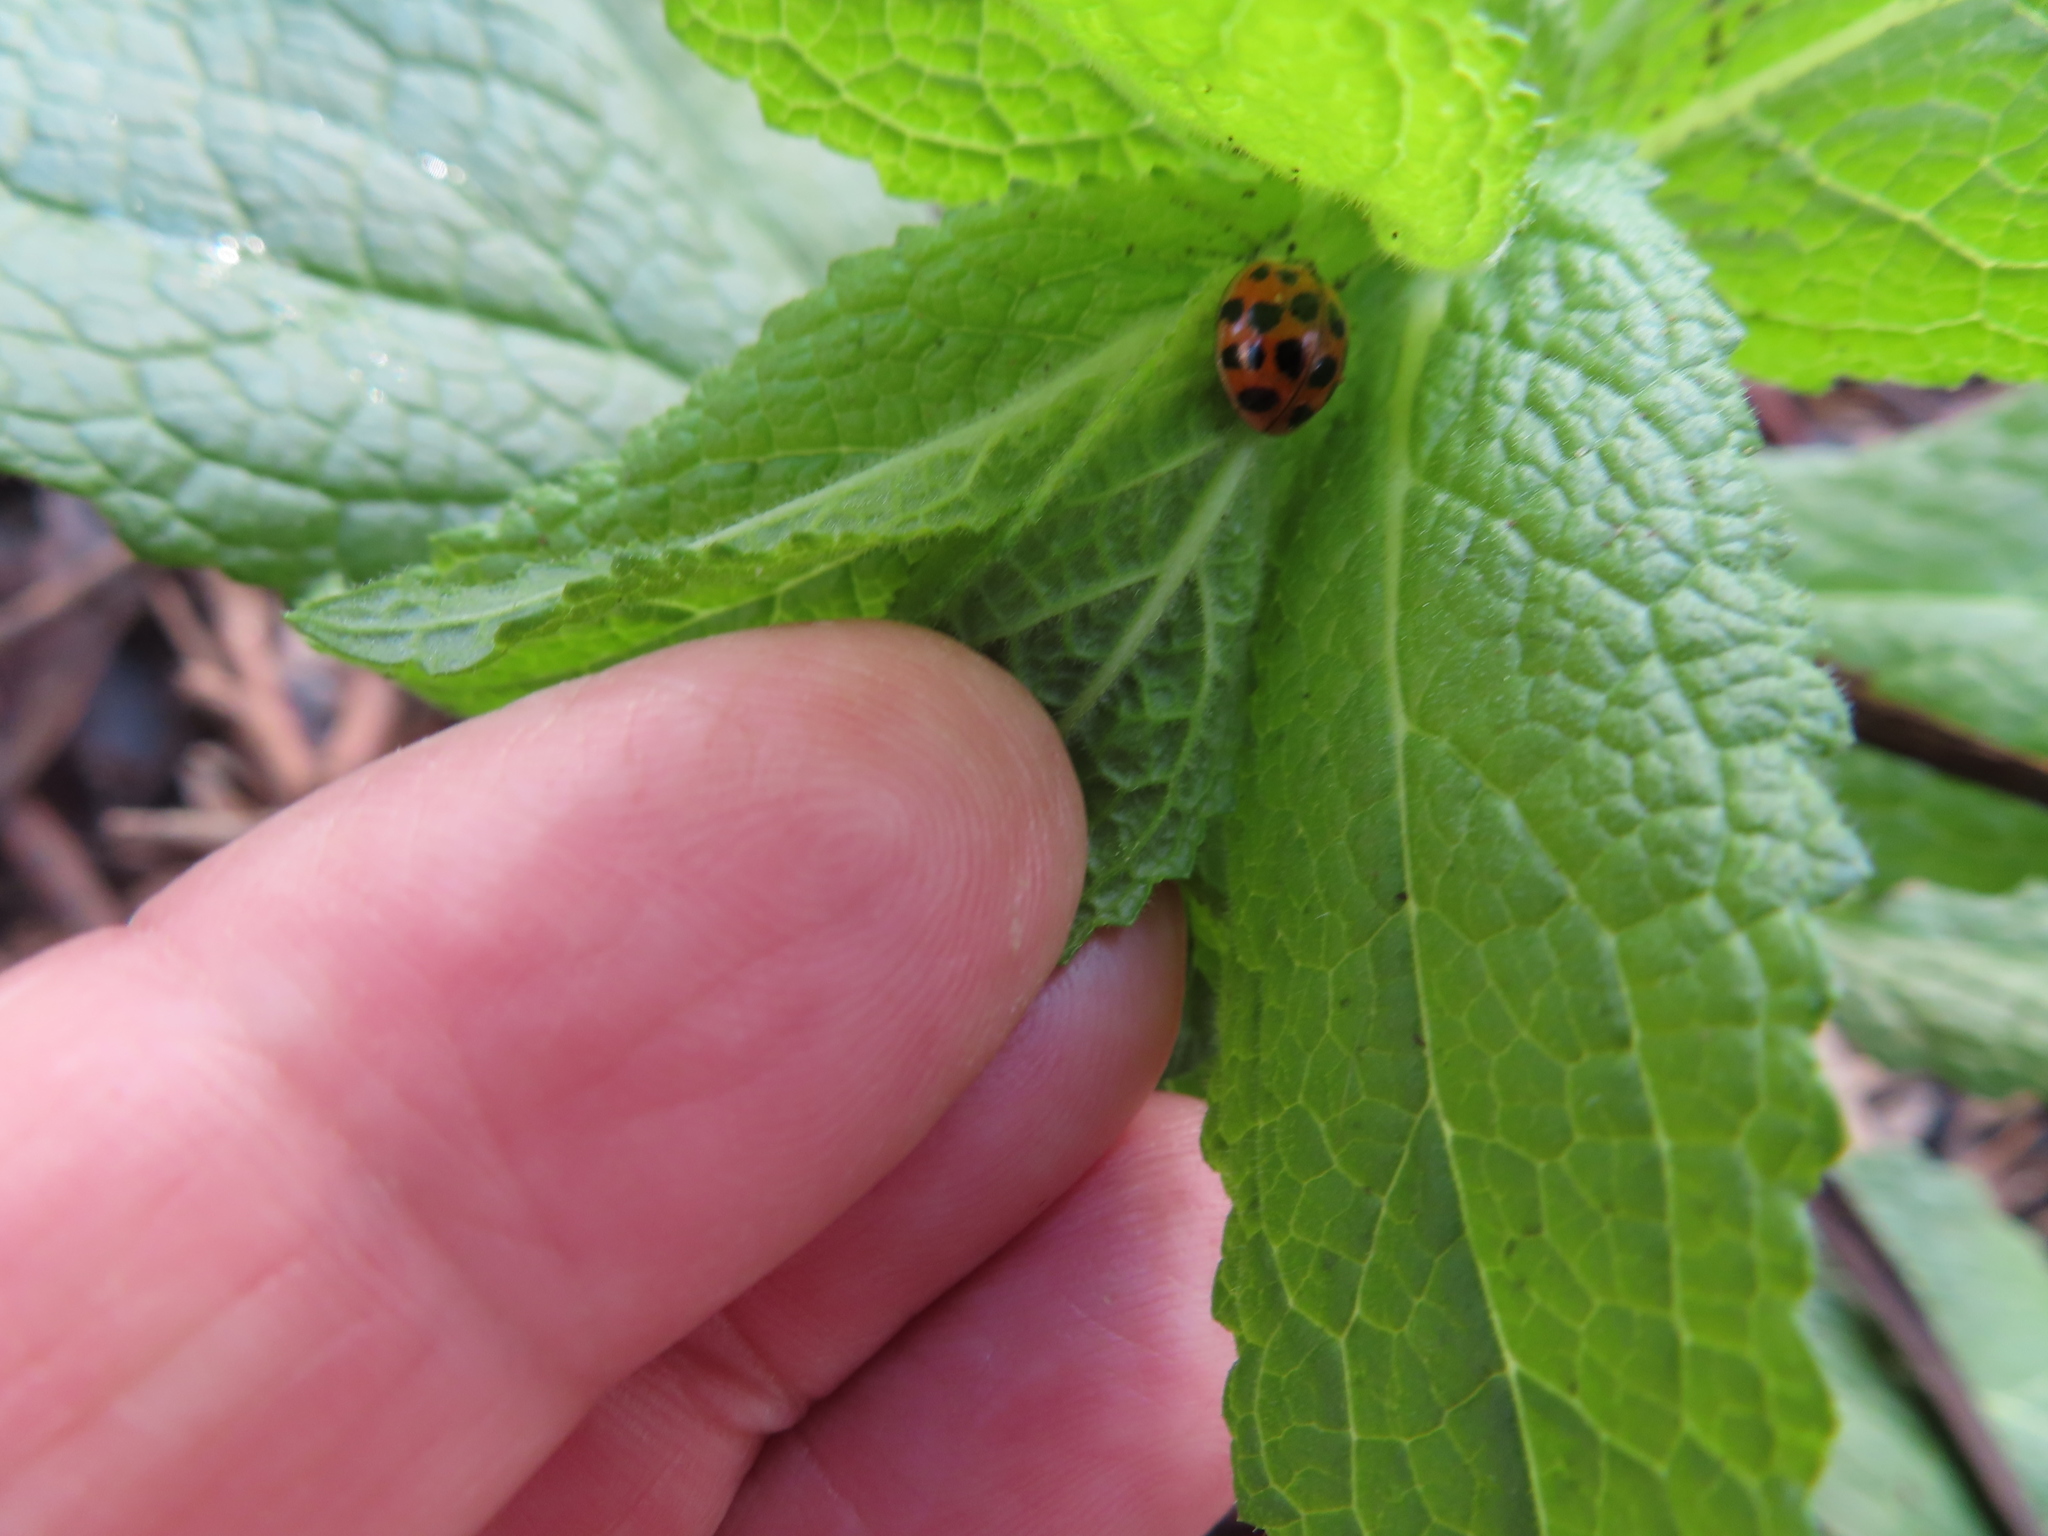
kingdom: Animalia
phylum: Arthropoda
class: Insecta
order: Coleoptera
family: Coccinellidae
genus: Harmonia
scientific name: Harmonia axyridis
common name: Harlequin ladybird
